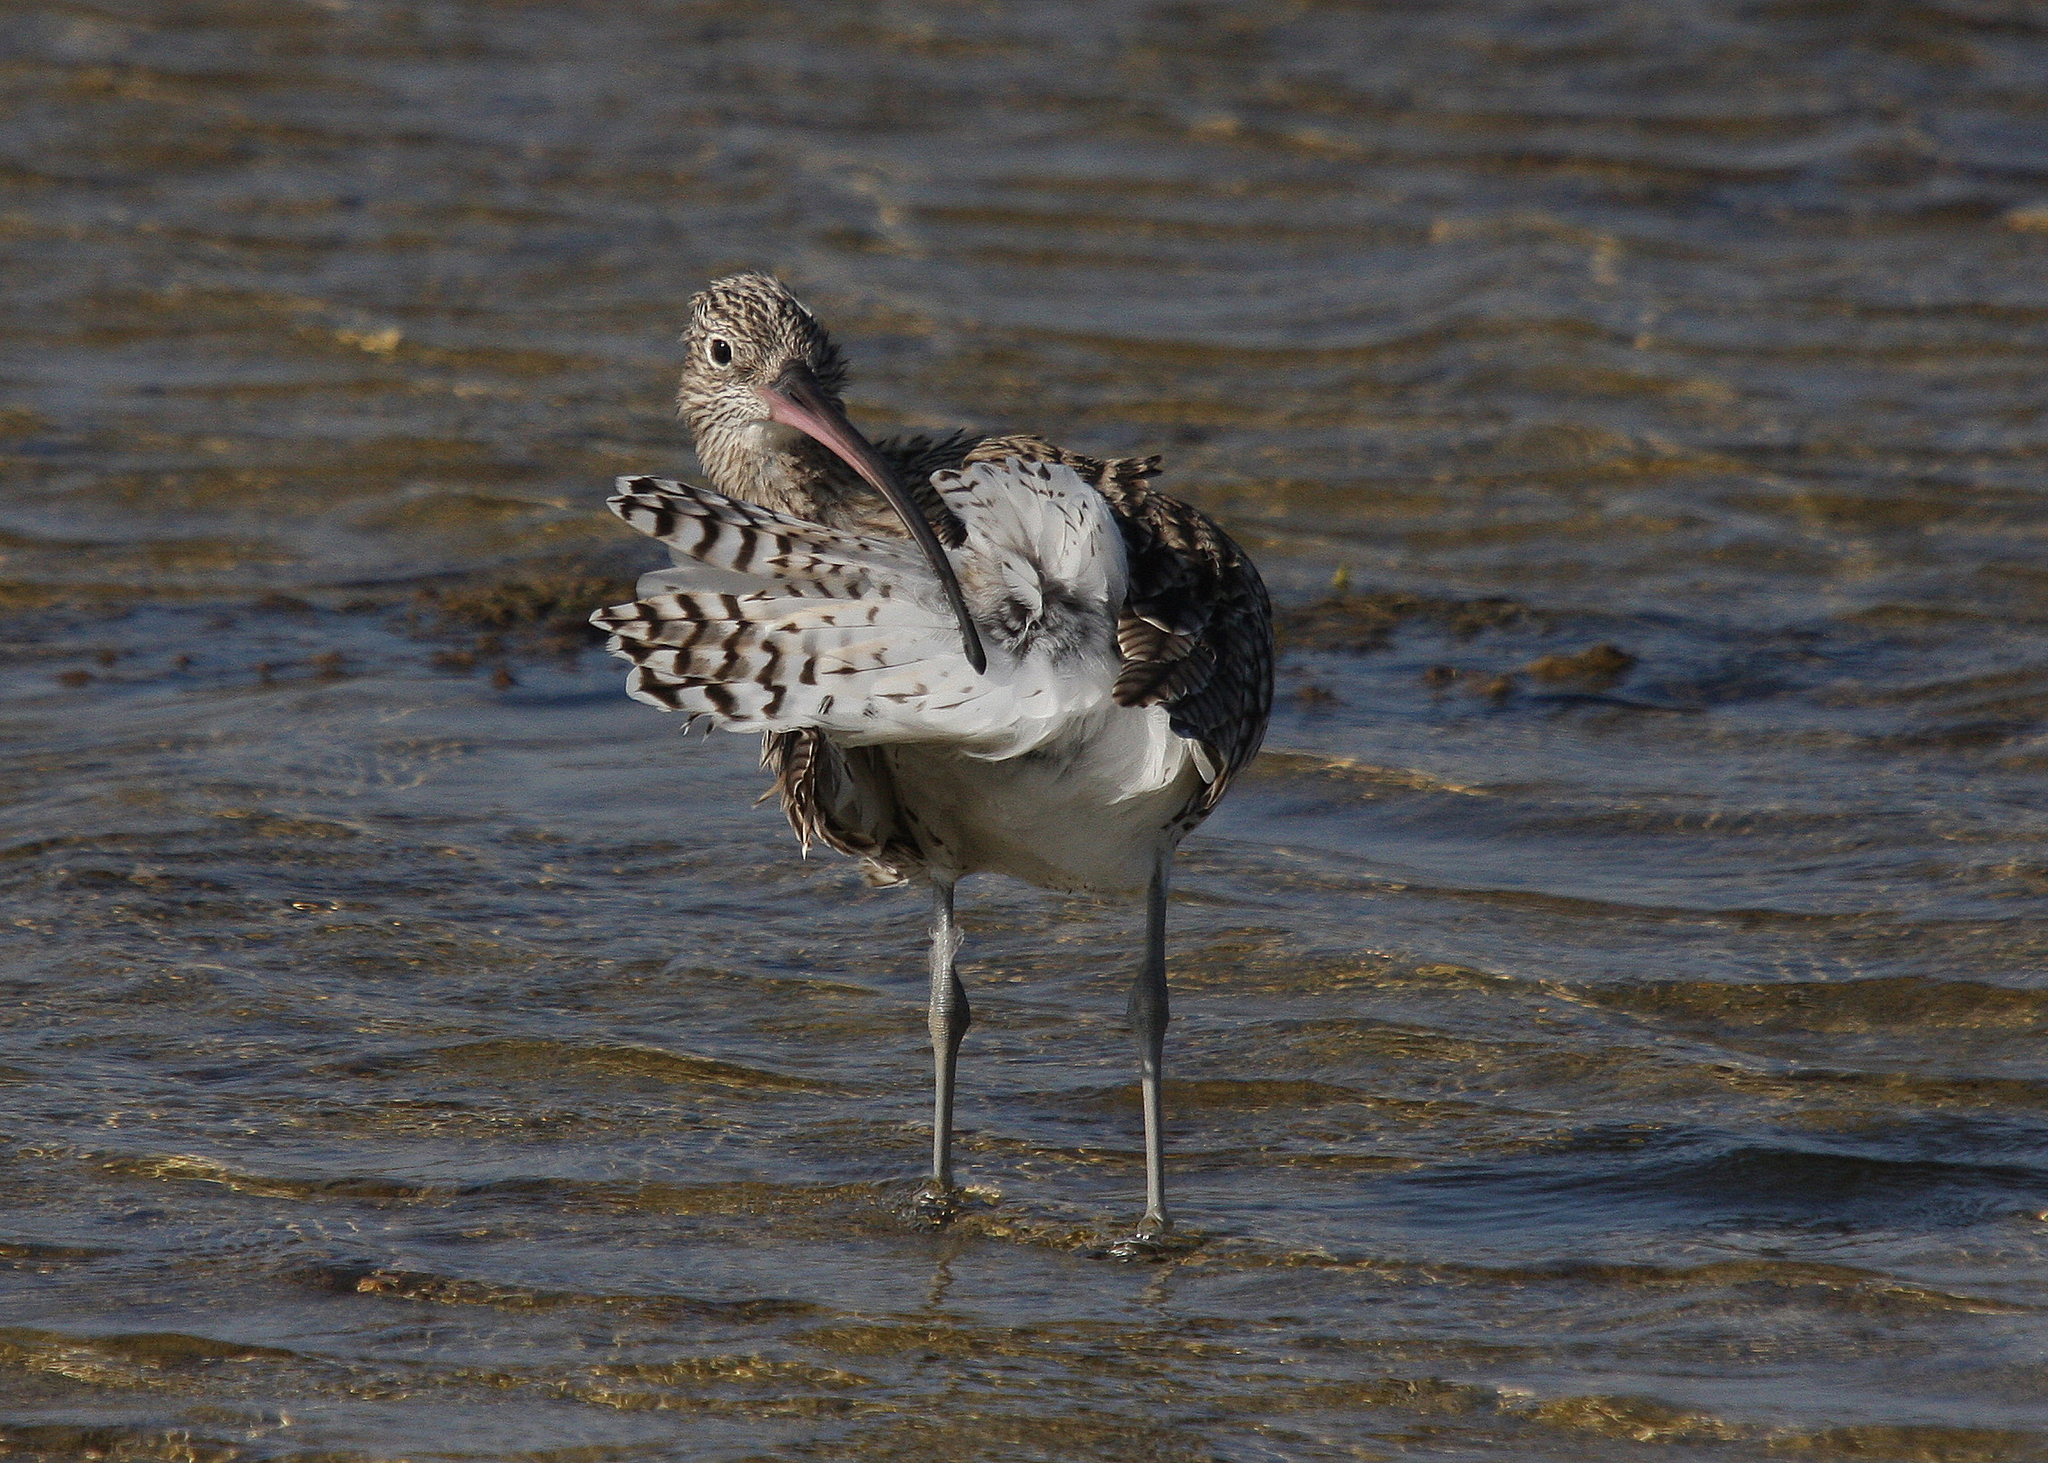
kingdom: Animalia
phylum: Chordata
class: Aves
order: Charadriiformes
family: Scolopacidae
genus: Numenius
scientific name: Numenius arquata
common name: Eurasian curlew
